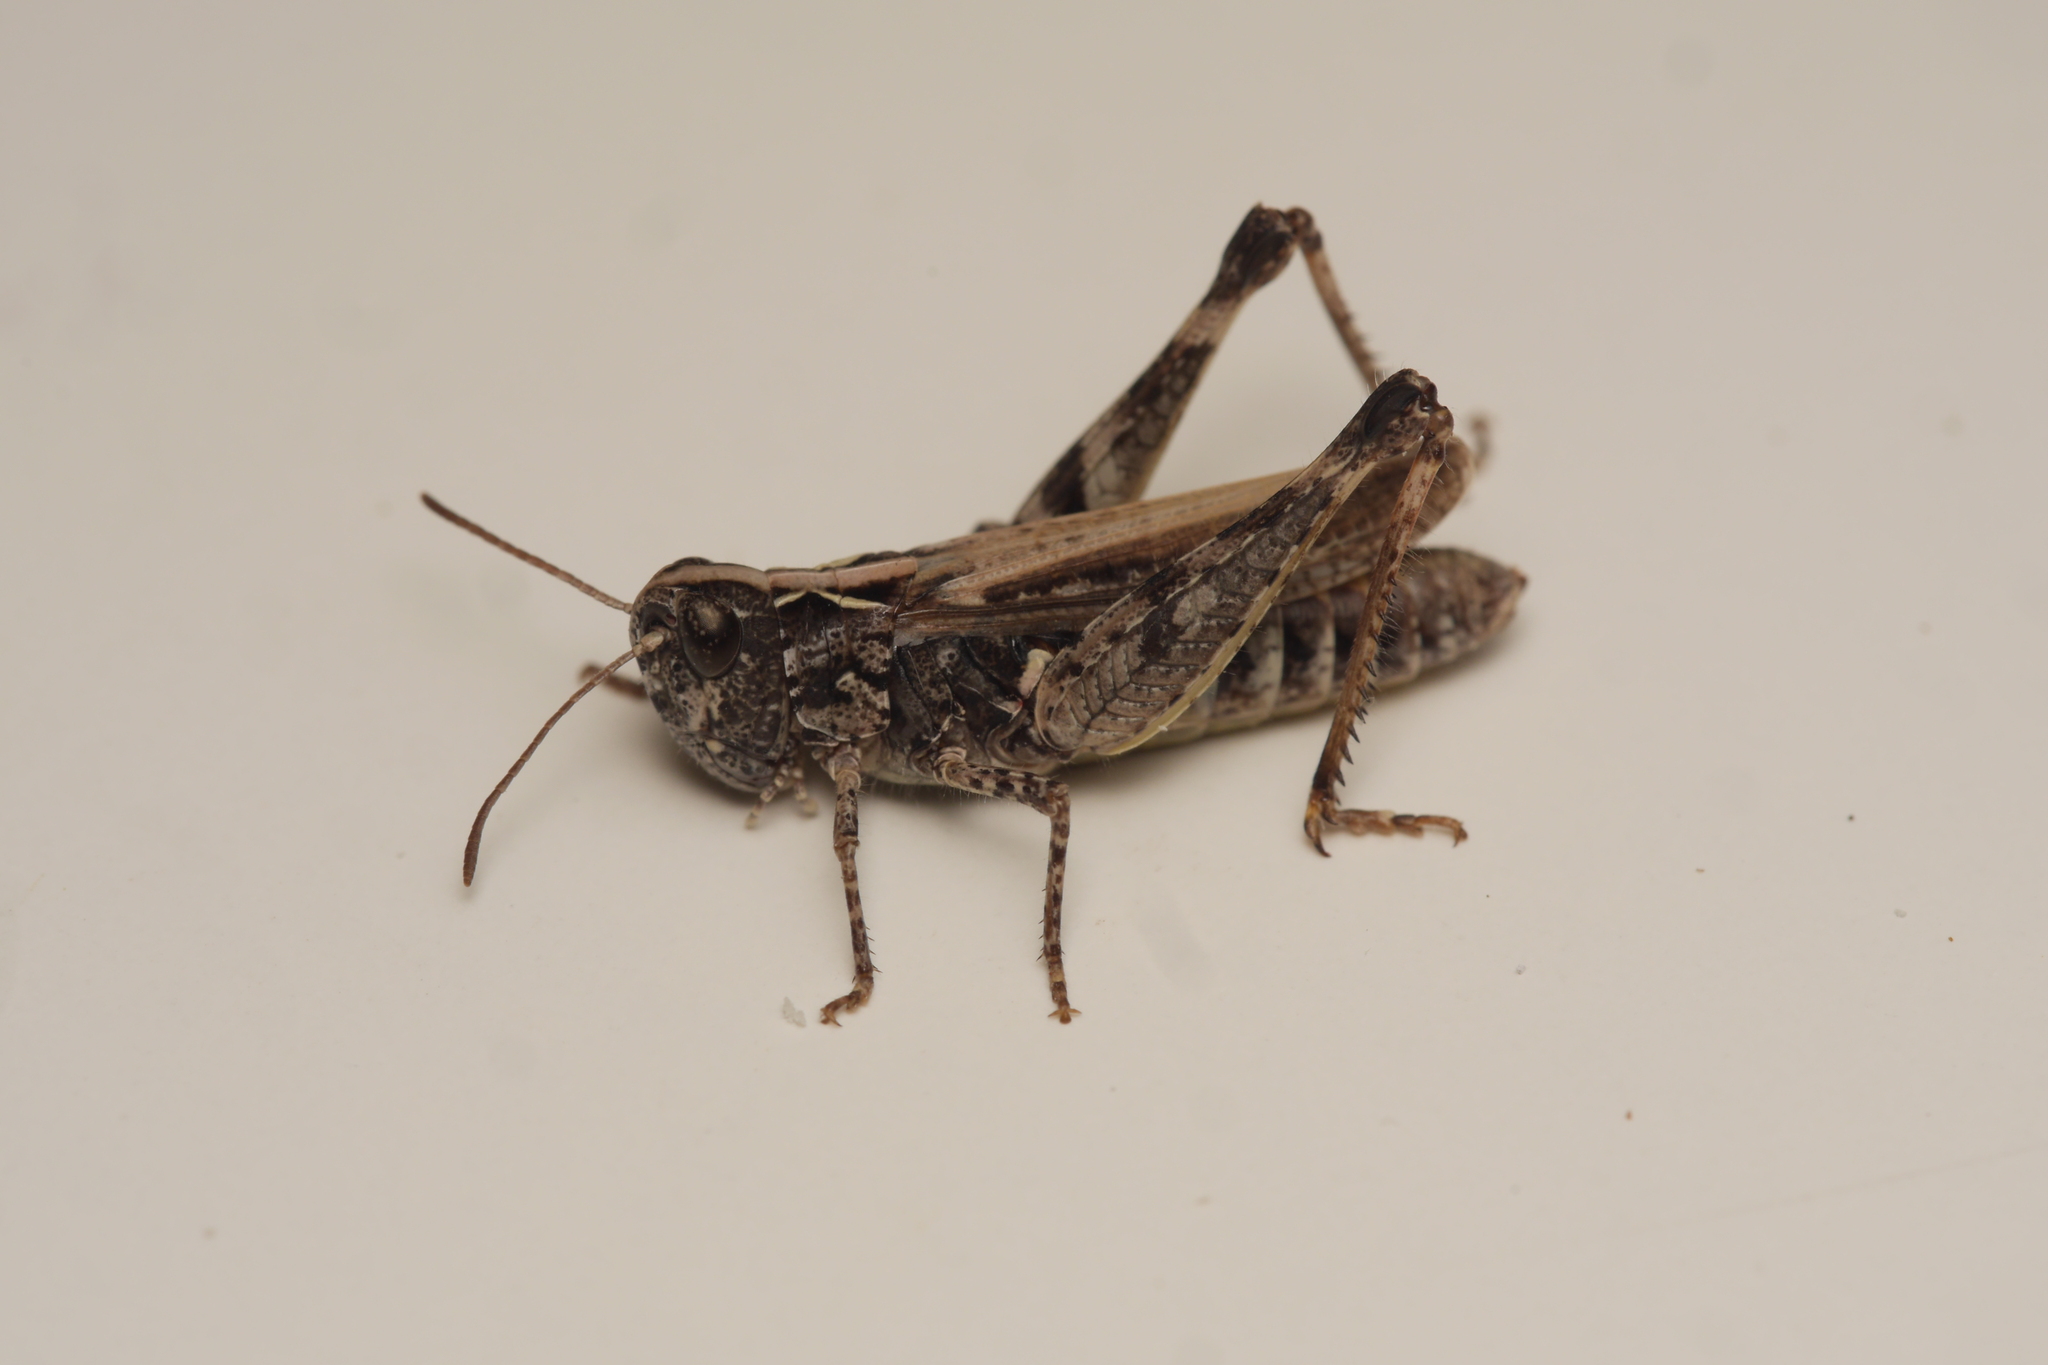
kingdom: Animalia
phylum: Arthropoda
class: Insecta
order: Orthoptera
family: Acrididae
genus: Myrmeleotettix
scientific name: Myrmeleotettix maculatus
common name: Mottled grasshopper
